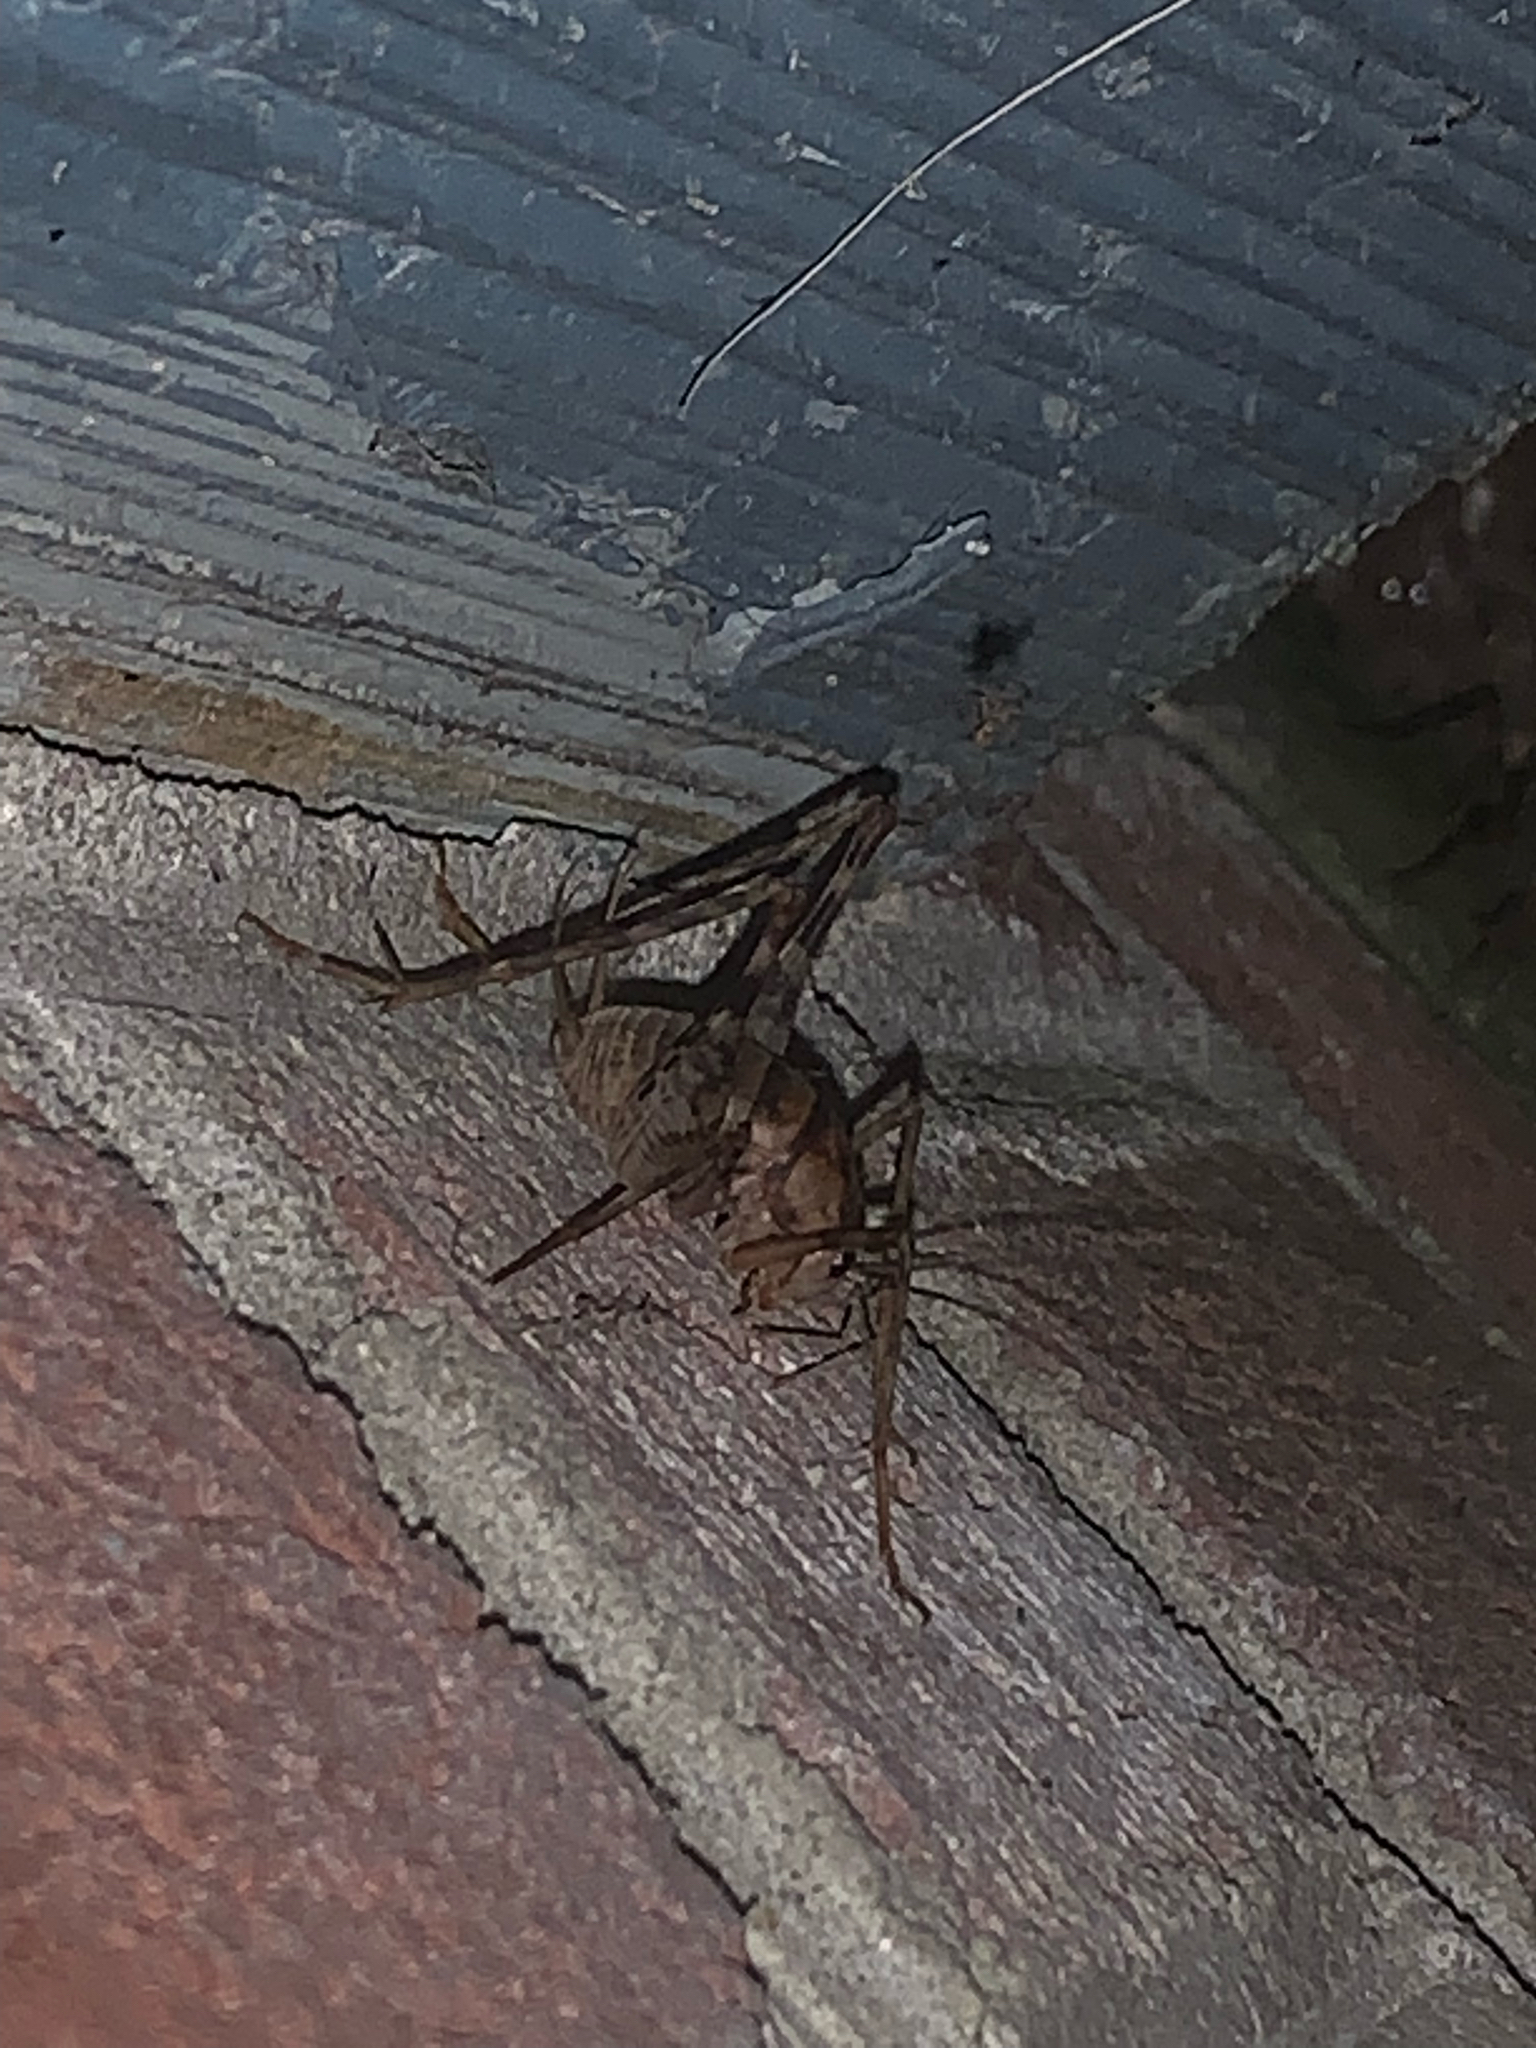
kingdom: Animalia
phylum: Arthropoda
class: Insecta
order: Orthoptera
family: Rhaphidophoridae
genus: Tachycines
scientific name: Tachycines asynamorus
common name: Greenhouse camel cricket
